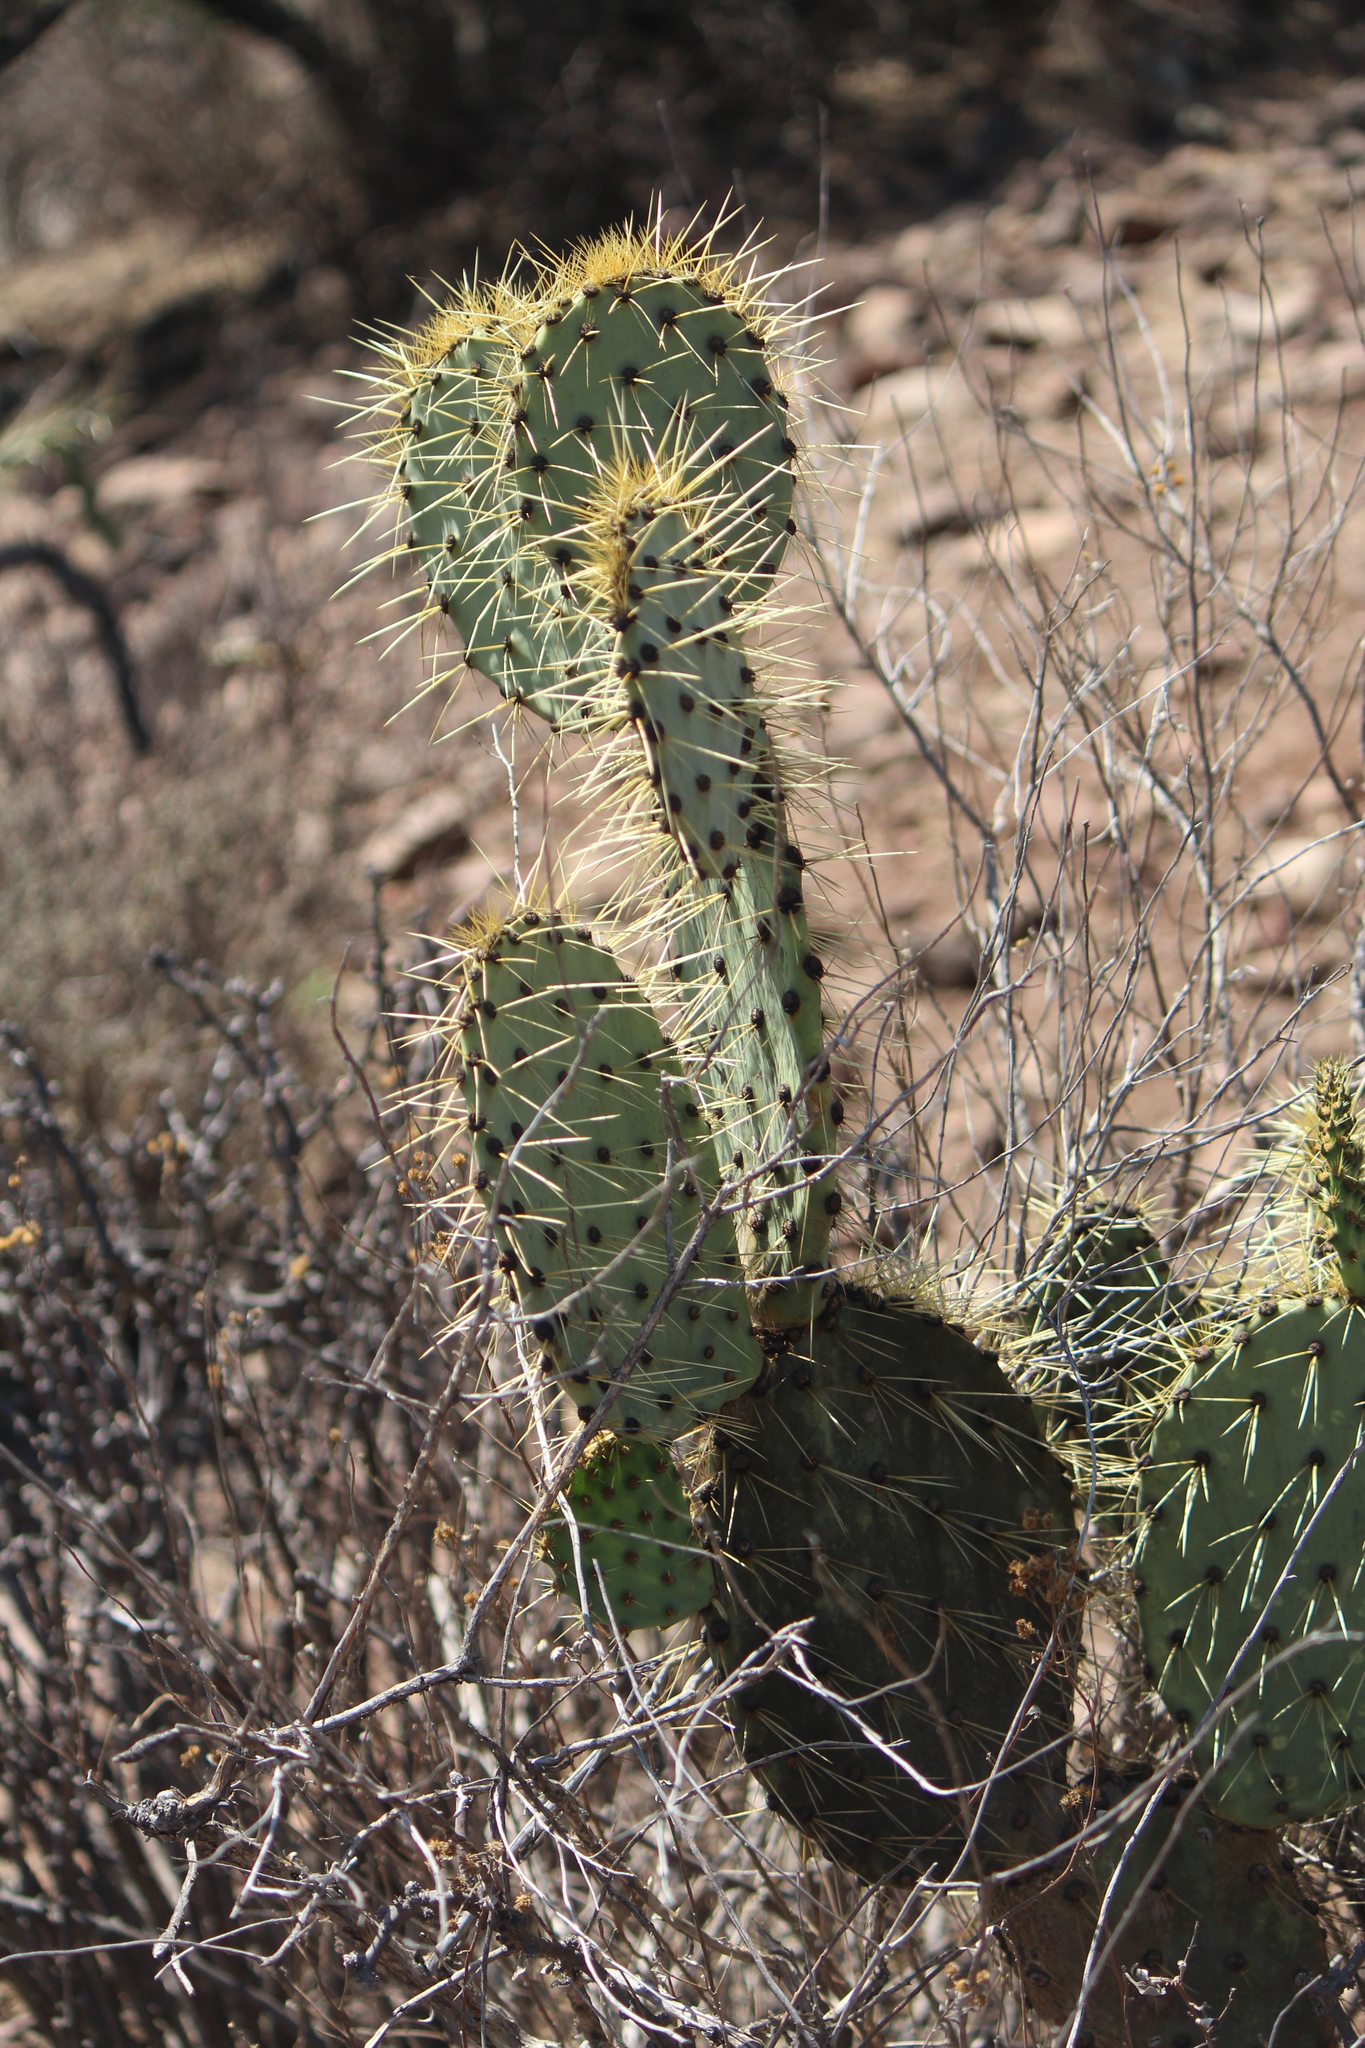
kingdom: Plantae
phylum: Tracheophyta
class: Magnoliopsida
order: Caryophyllales
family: Cactaceae
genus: Opuntia
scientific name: Opuntia engelmannii
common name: Cactus-apple
